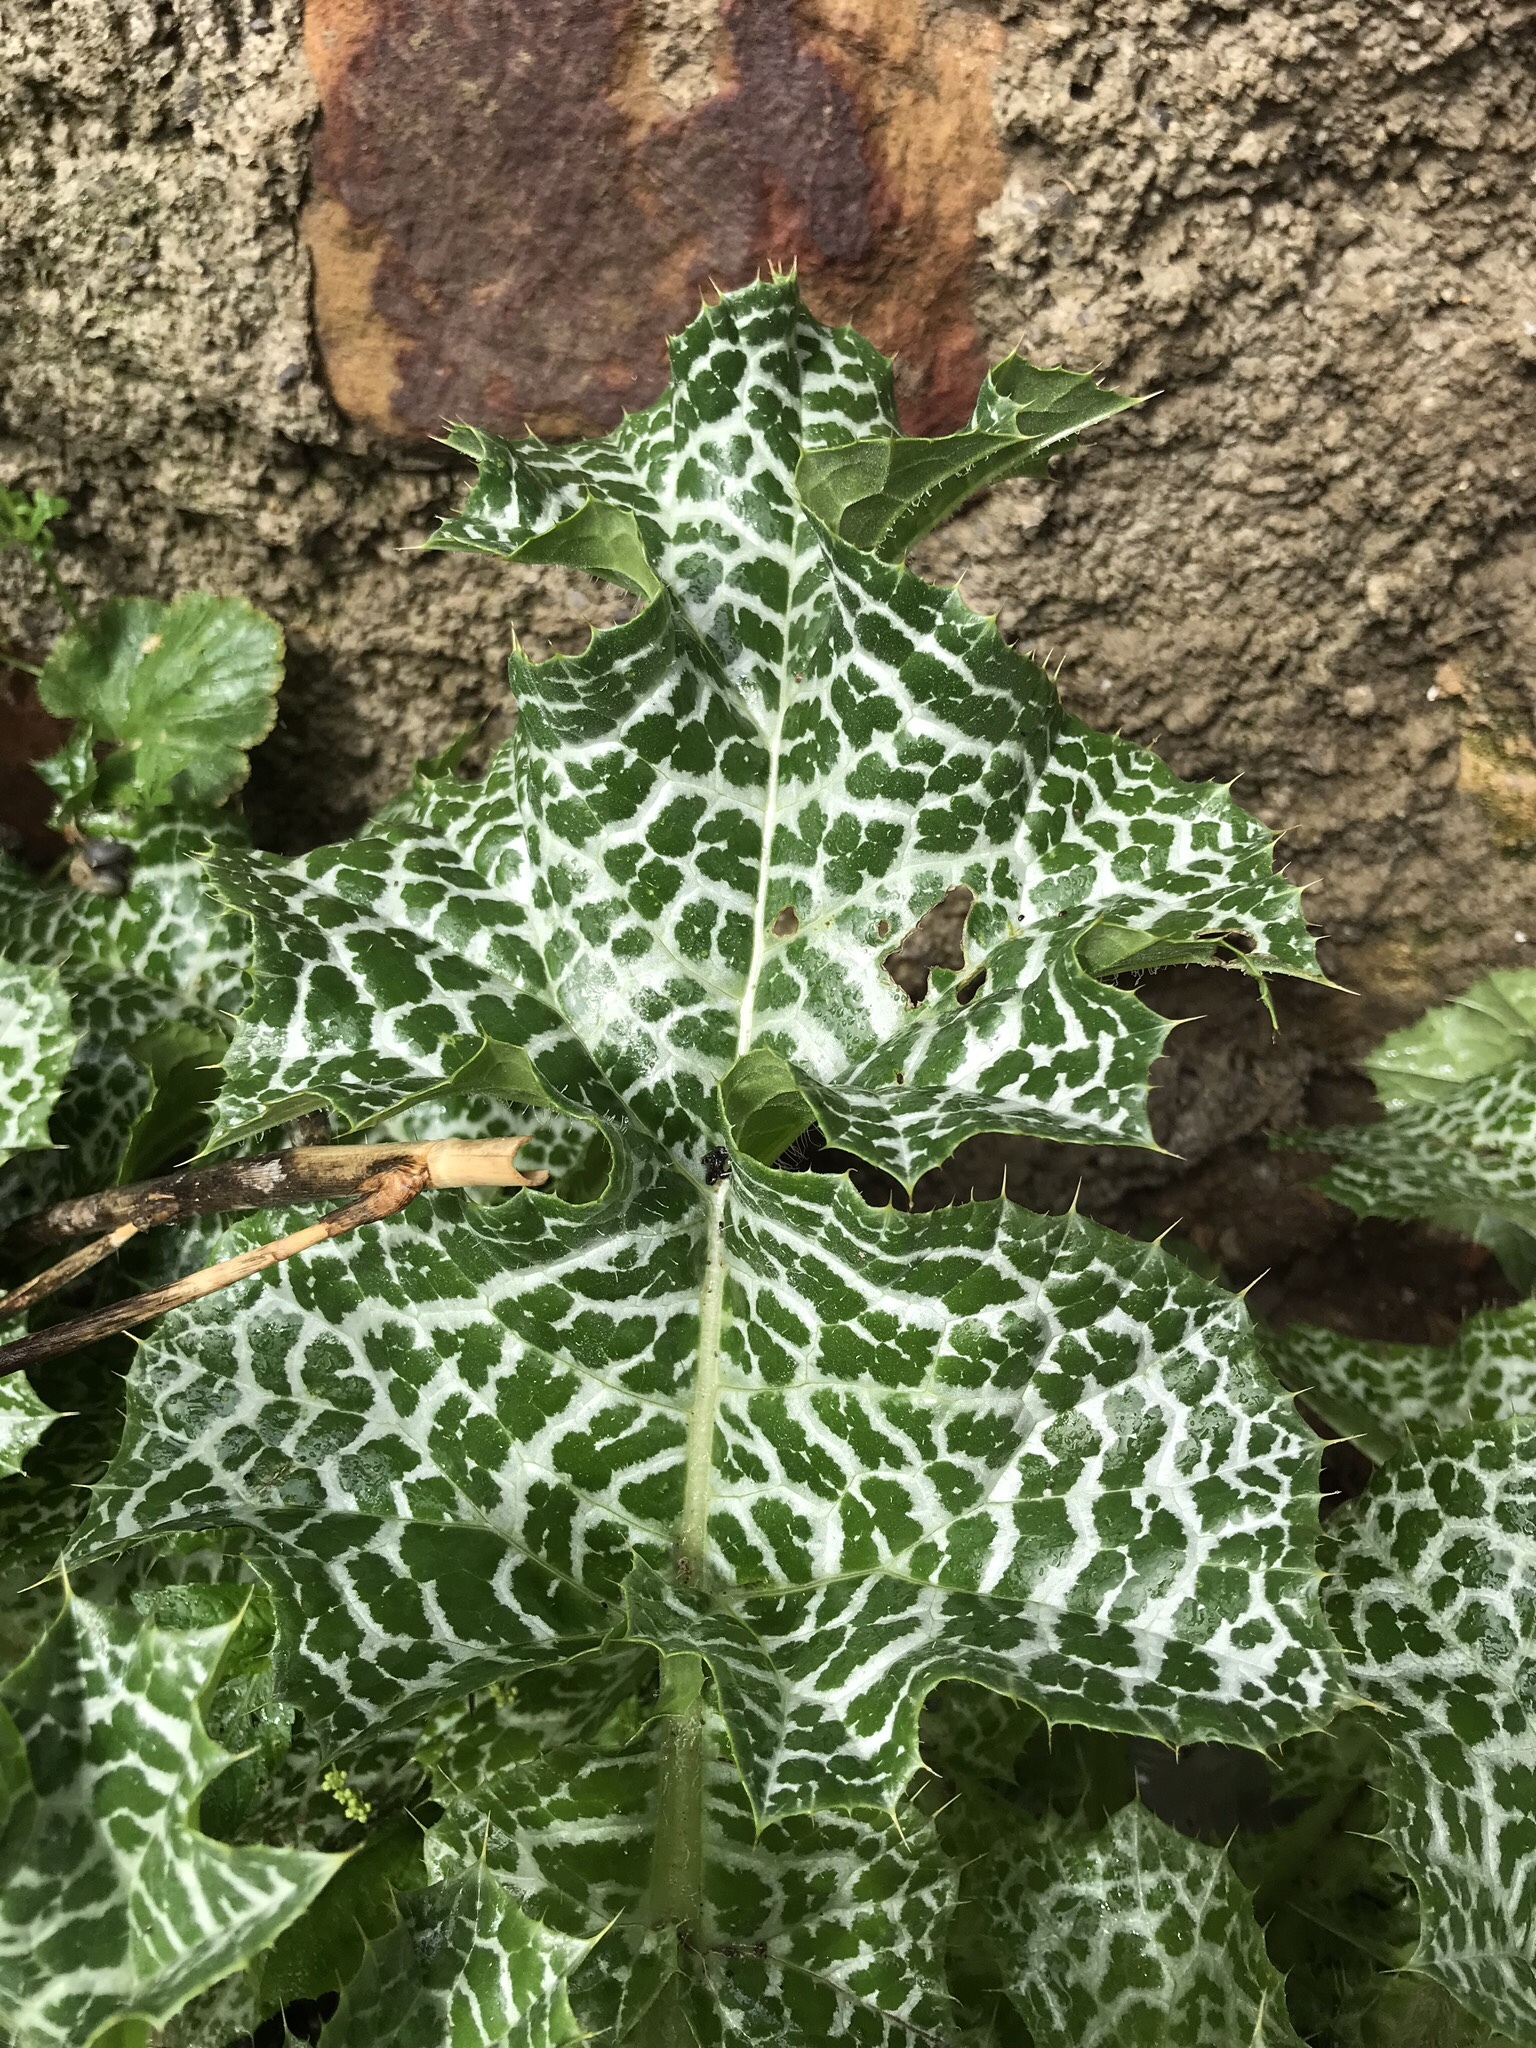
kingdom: Plantae
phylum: Tracheophyta
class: Magnoliopsida
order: Asterales
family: Asteraceae
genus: Silybum
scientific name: Silybum marianum
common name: Milk thistle
